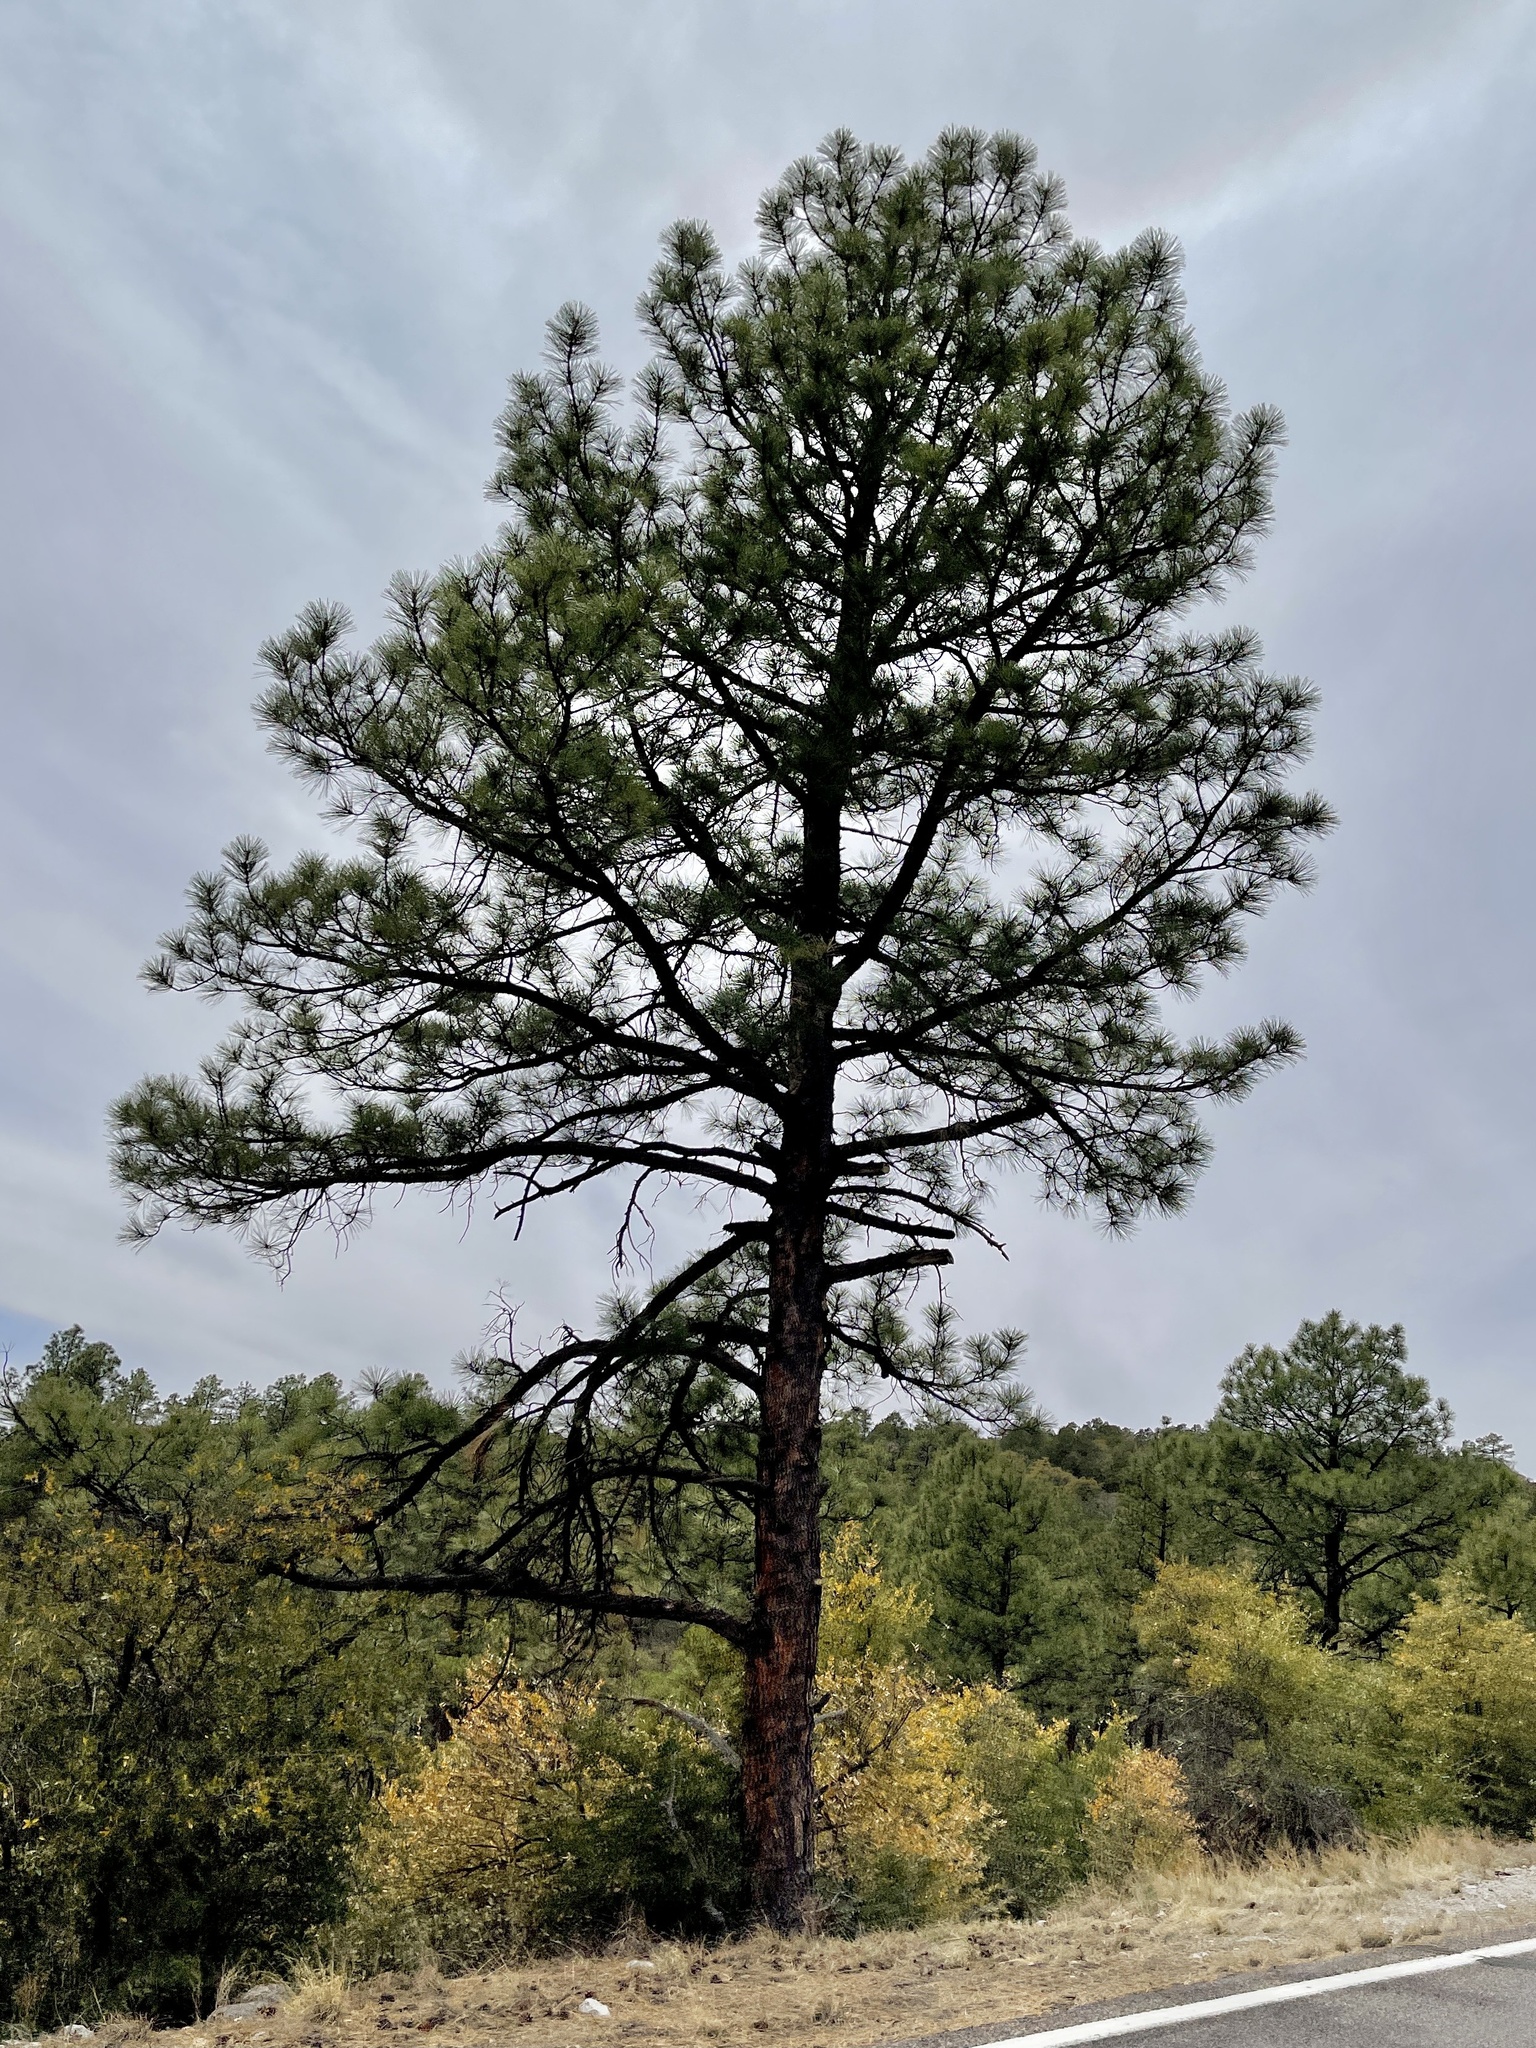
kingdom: Plantae
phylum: Tracheophyta
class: Pinopsida
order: Pinales
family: Pinaceae
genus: Pinus
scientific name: Pinus ponderosa
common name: Western yellow-pine
